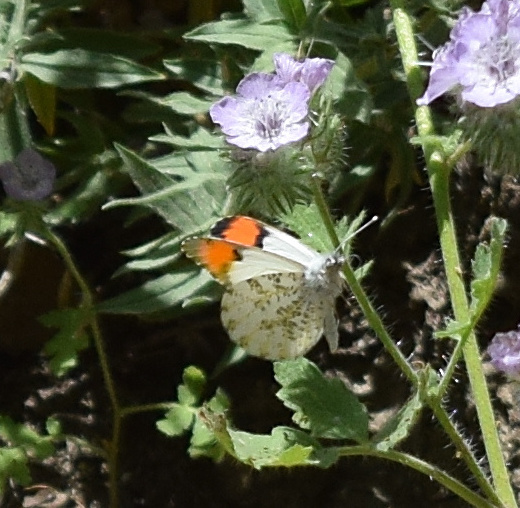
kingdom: Animalia
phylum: Arthropoda
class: Insecta
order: Lepidoptera
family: Pieridae
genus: Anthocharis
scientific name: Anthocharis sara
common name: Sara's orangetip
